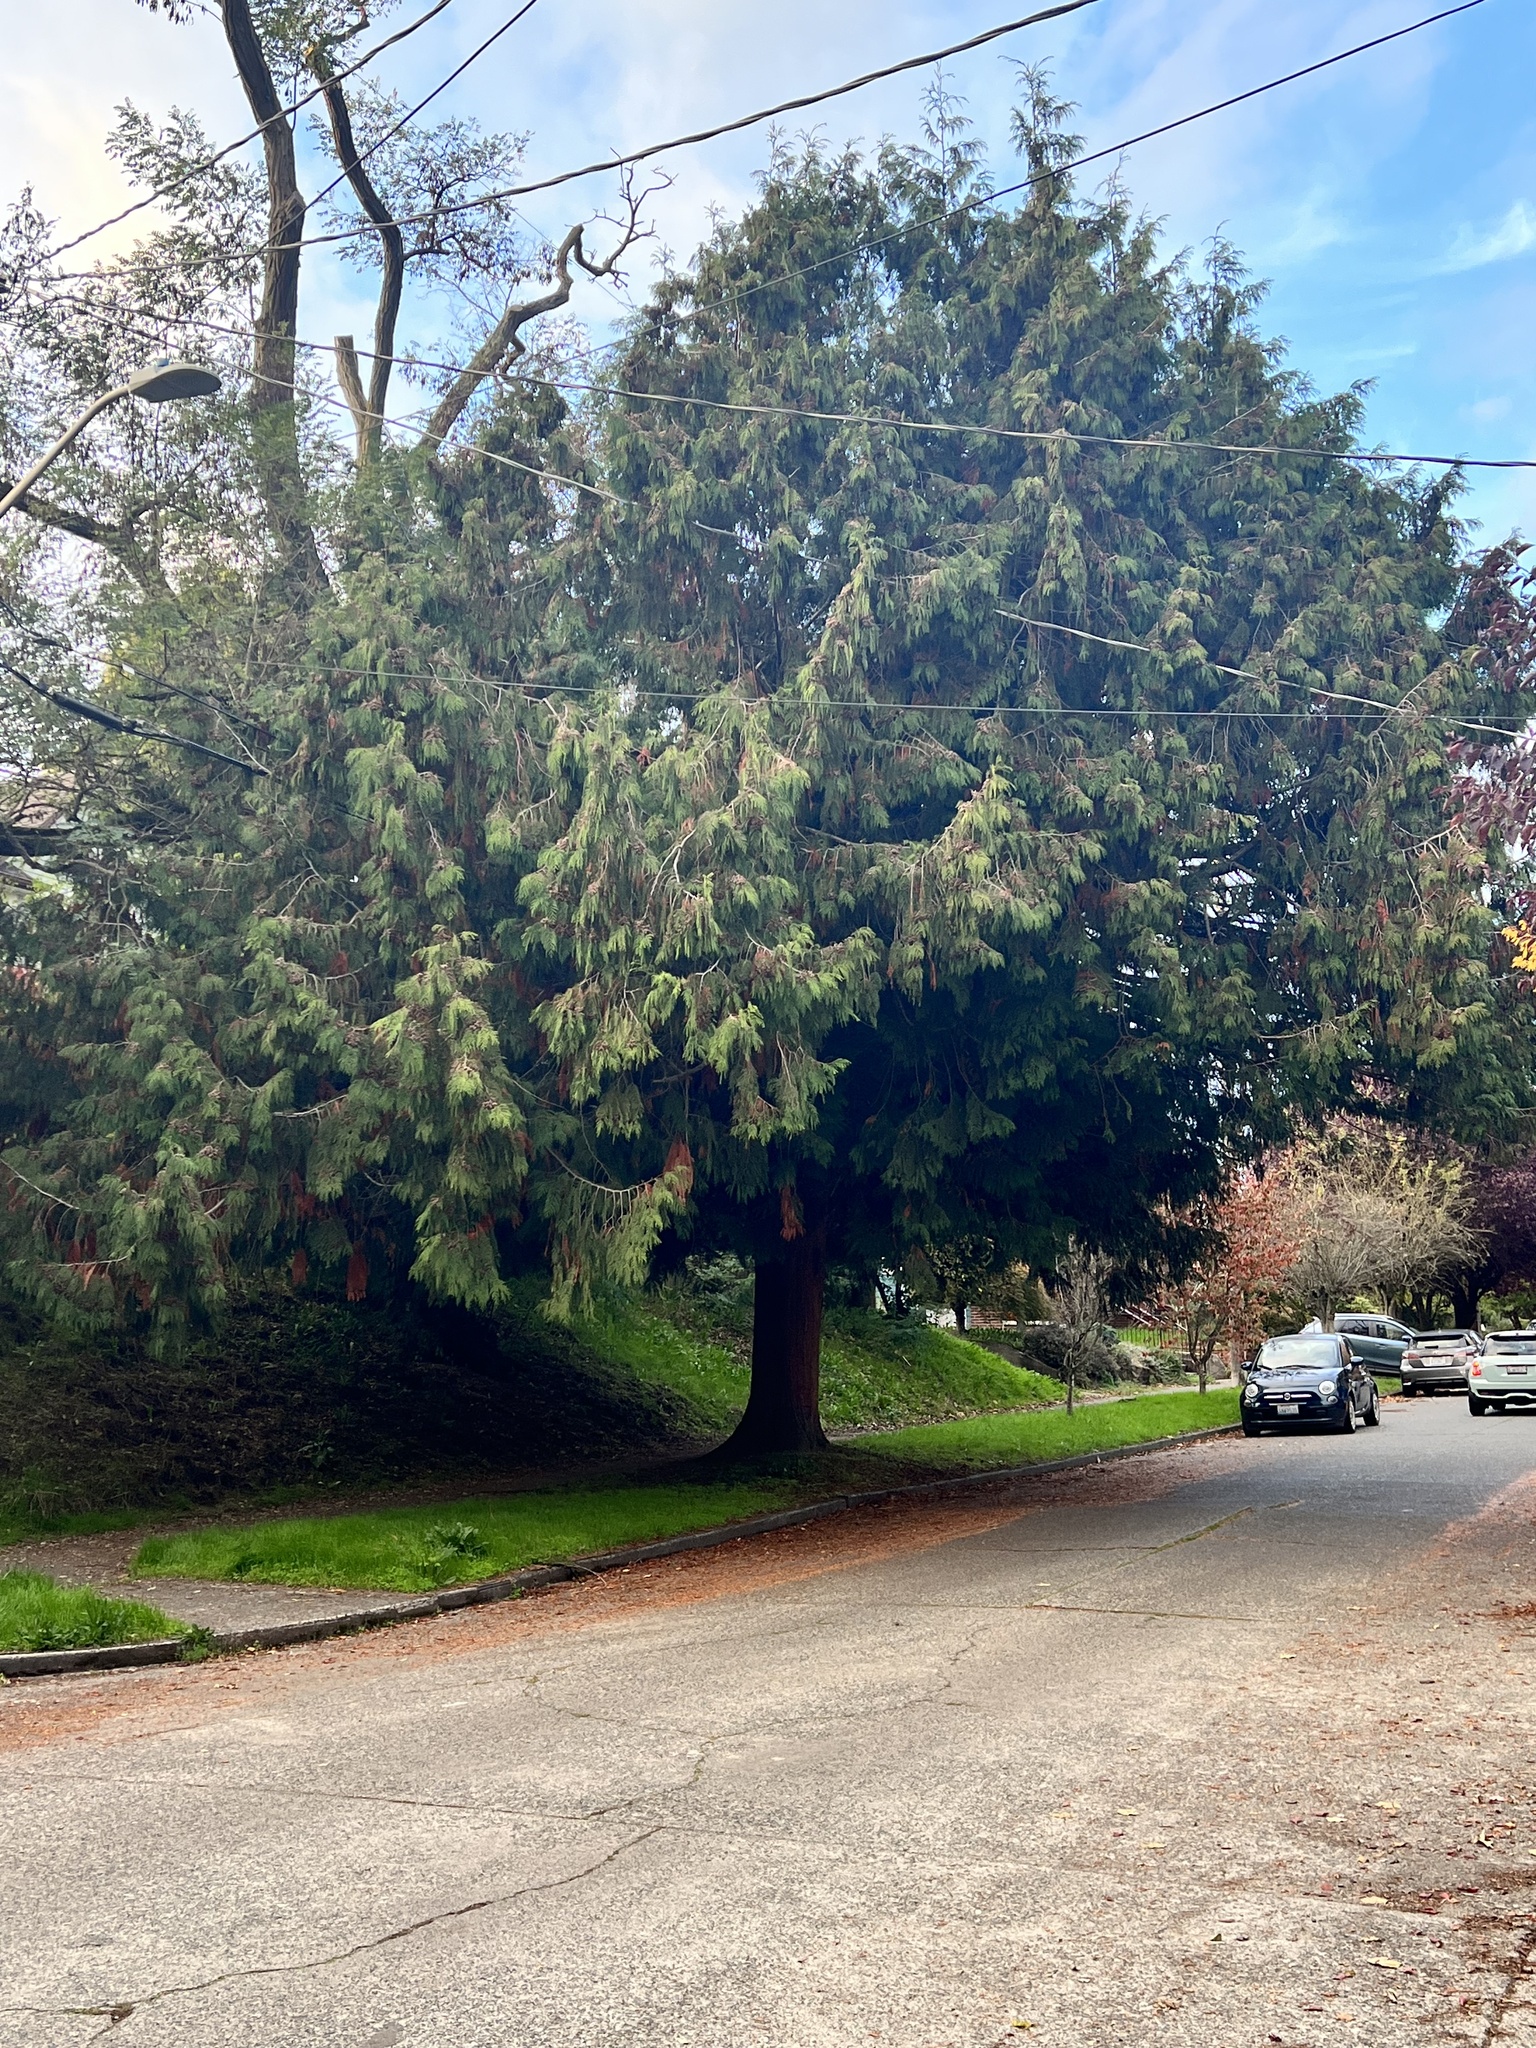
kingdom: Plantae
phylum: Tracheophyta
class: Pinopsida
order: Pinales
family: Cupressaceae
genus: Thuja
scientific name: Thuja plicata
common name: Western red-cedar
